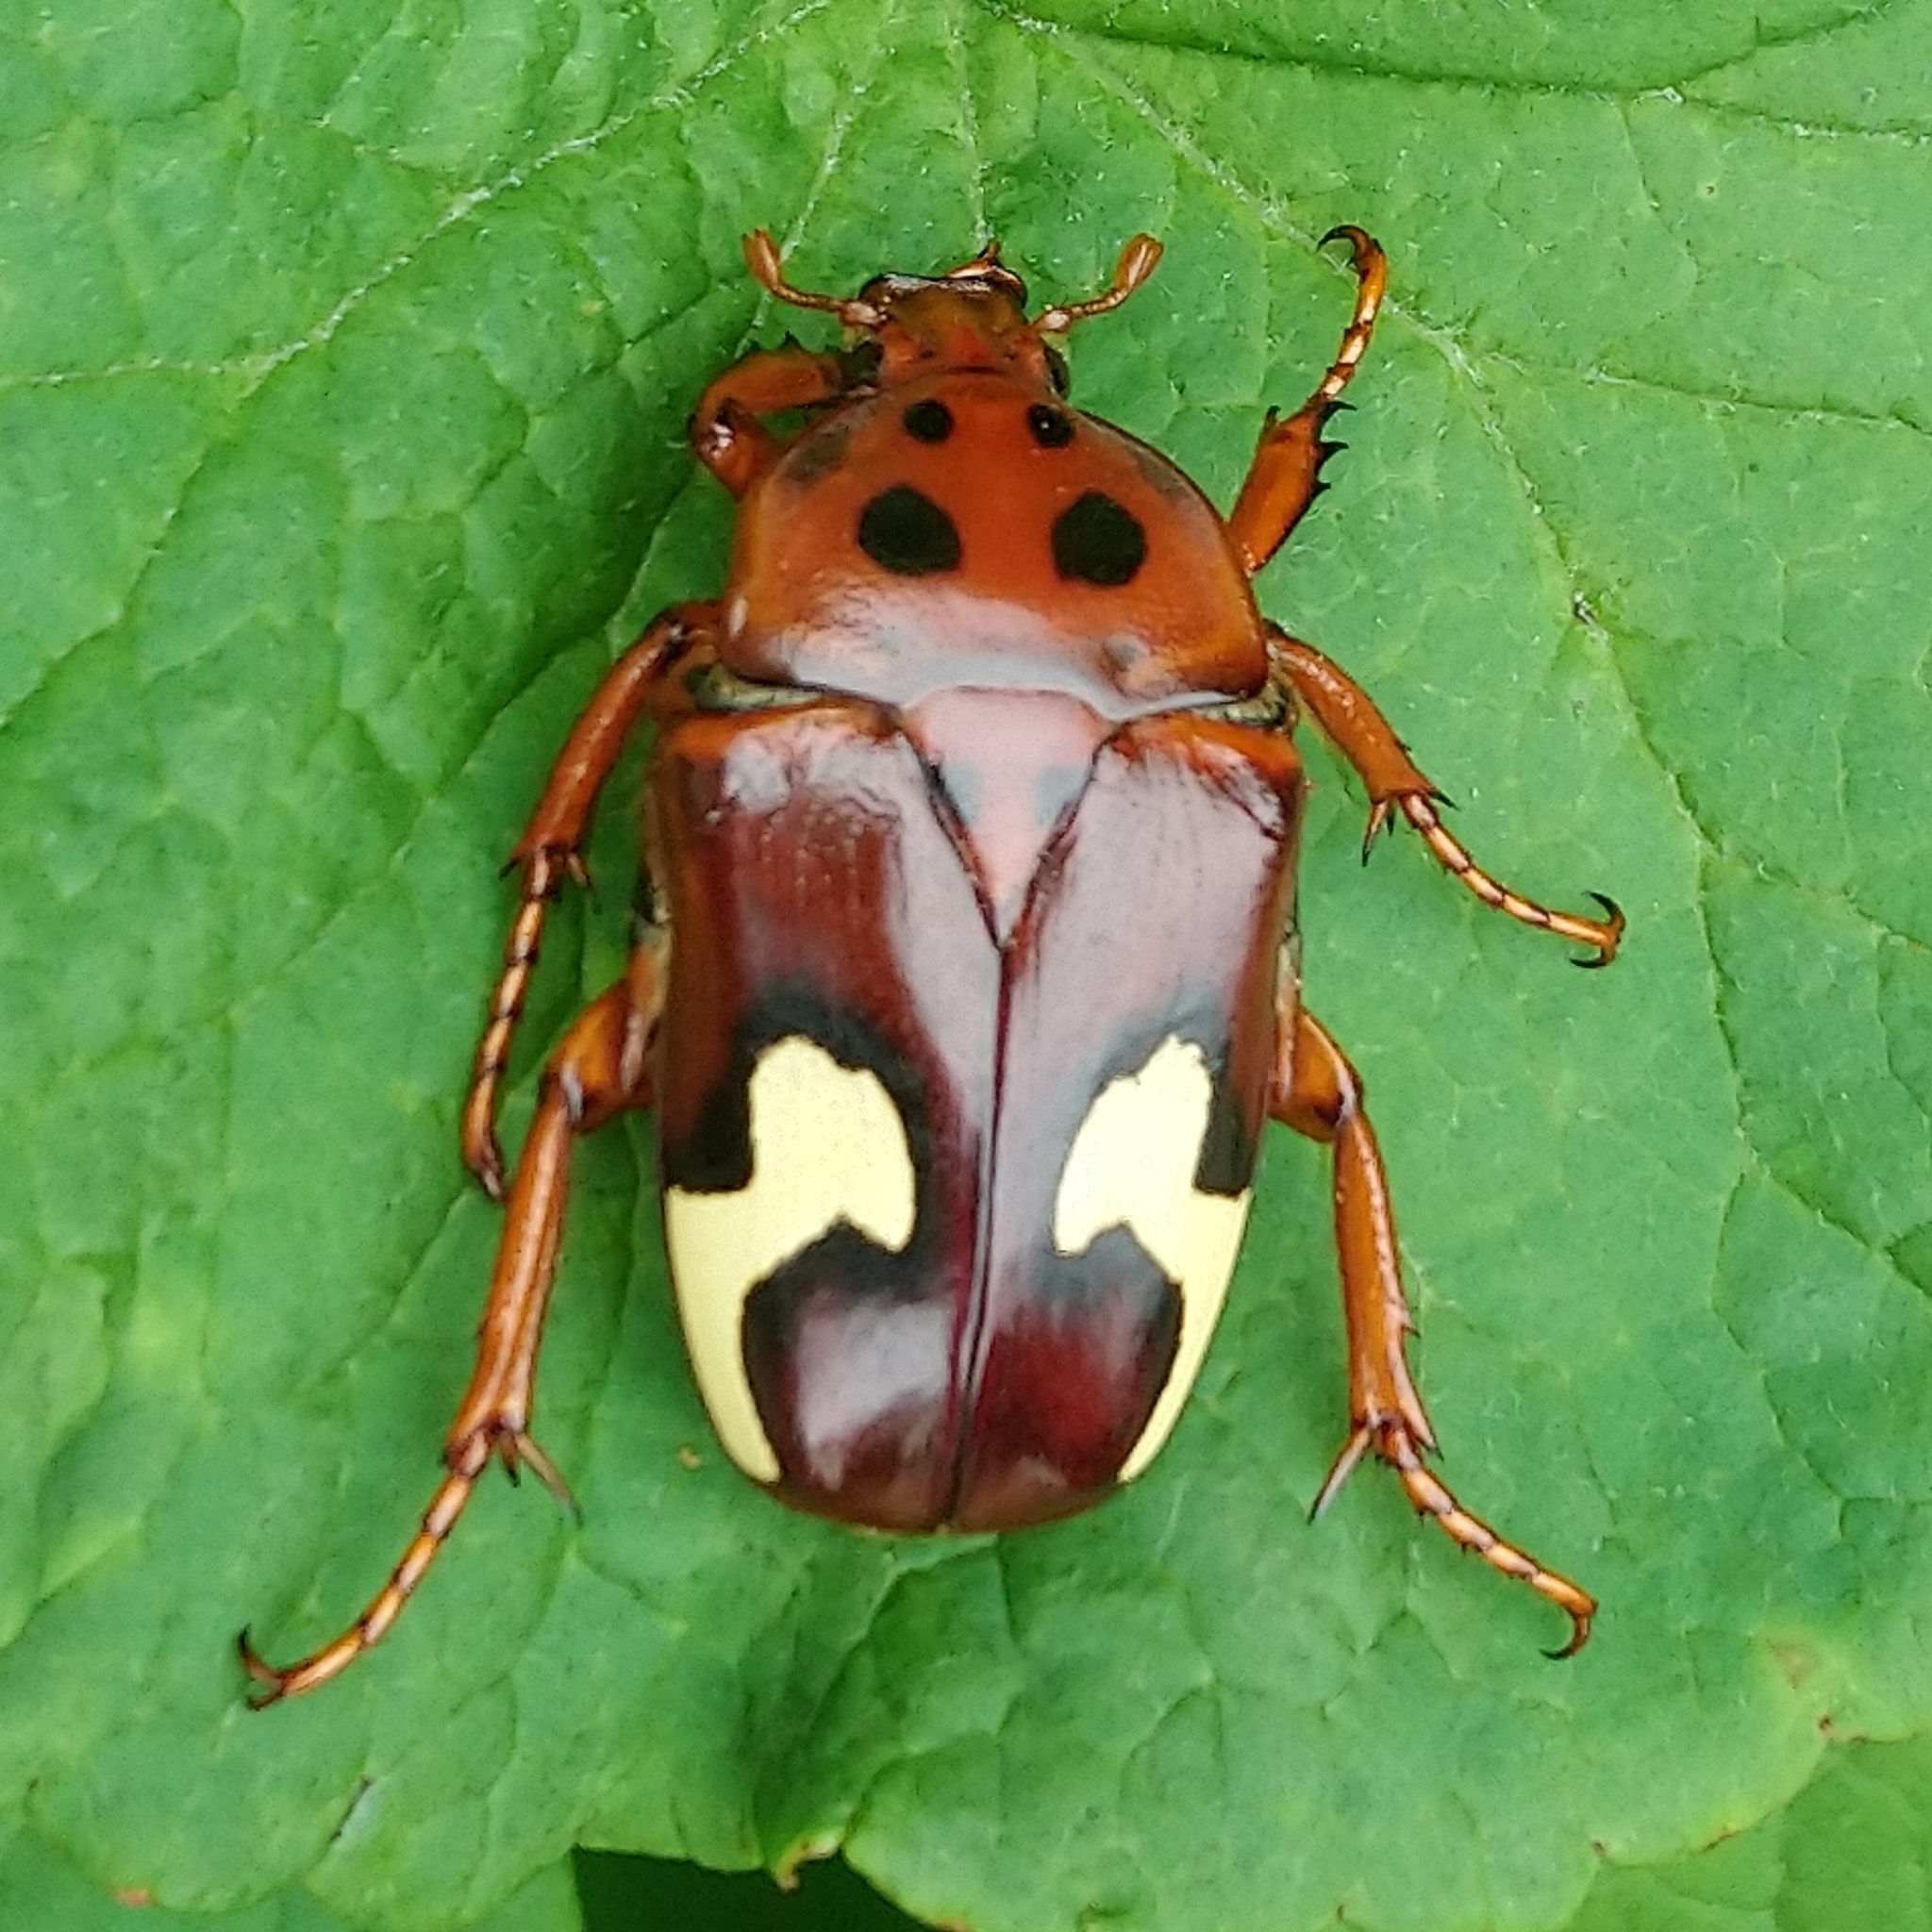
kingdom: Animalia
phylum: Arthropoda
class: Insecta
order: Coleoptera
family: Scarabaeidae
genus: Anisorrhina
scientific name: Anisorrhina flavomaculata
